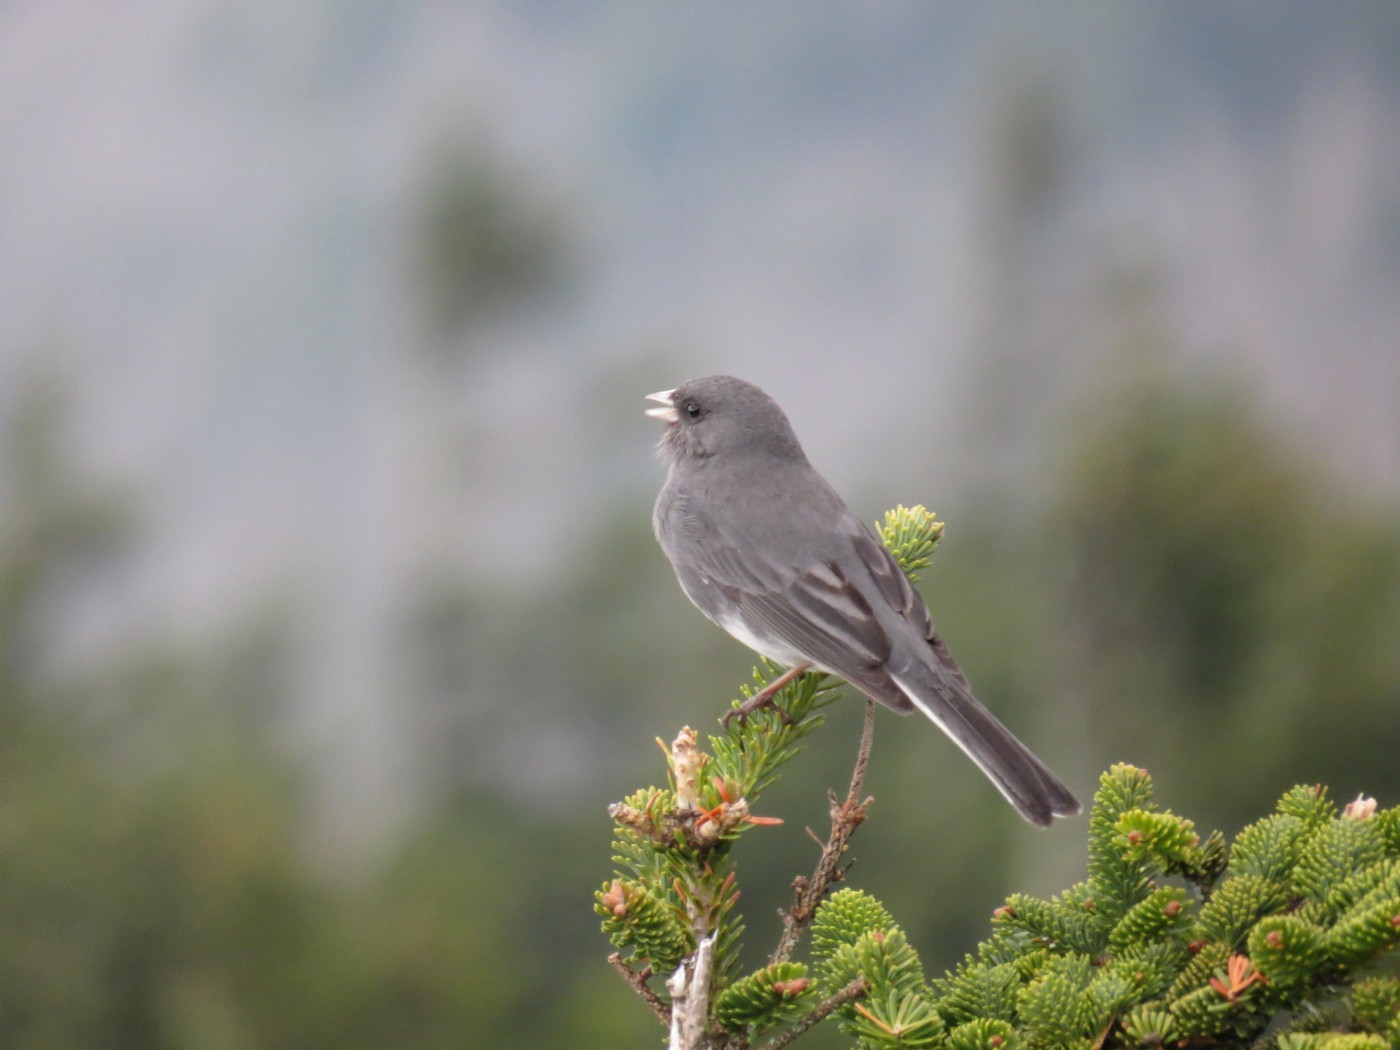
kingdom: Animalia
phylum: Chordata
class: Aves
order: Passeriformes
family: Passerellidae
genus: Junco
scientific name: Junco hyemalis
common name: Dark-eyed junco
